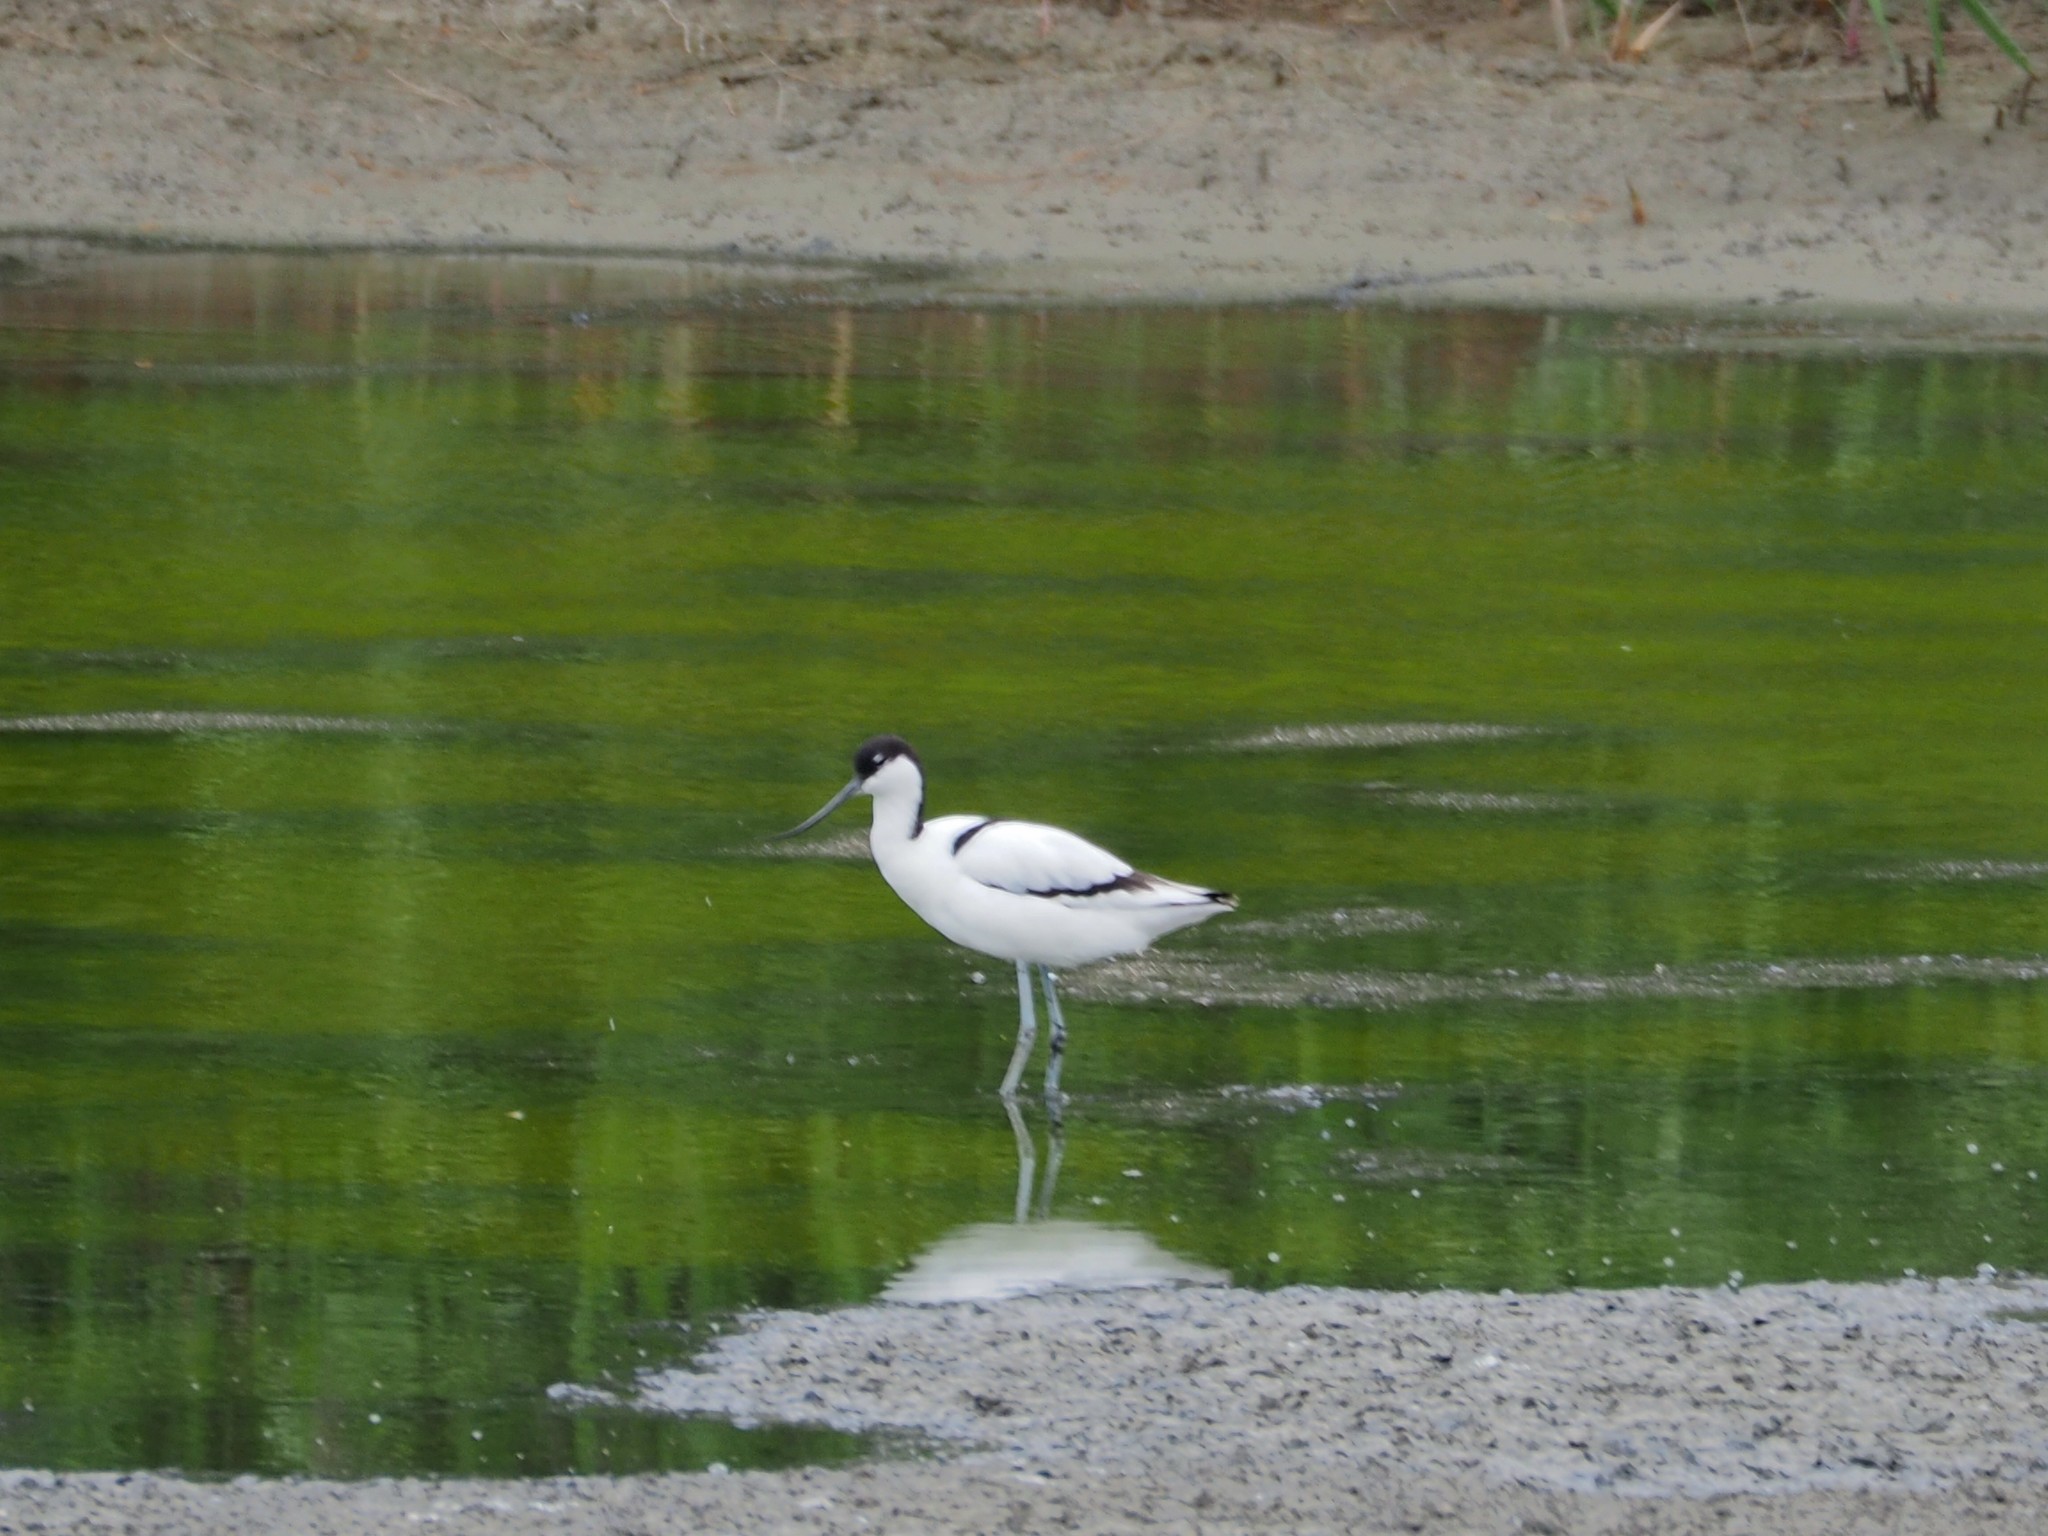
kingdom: Animalia
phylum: Chordata
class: Aves
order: Charadriiformes
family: Recurvirostridae
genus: Recurvirostra
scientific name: Recurvirostra avosetta
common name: Pied avocet
